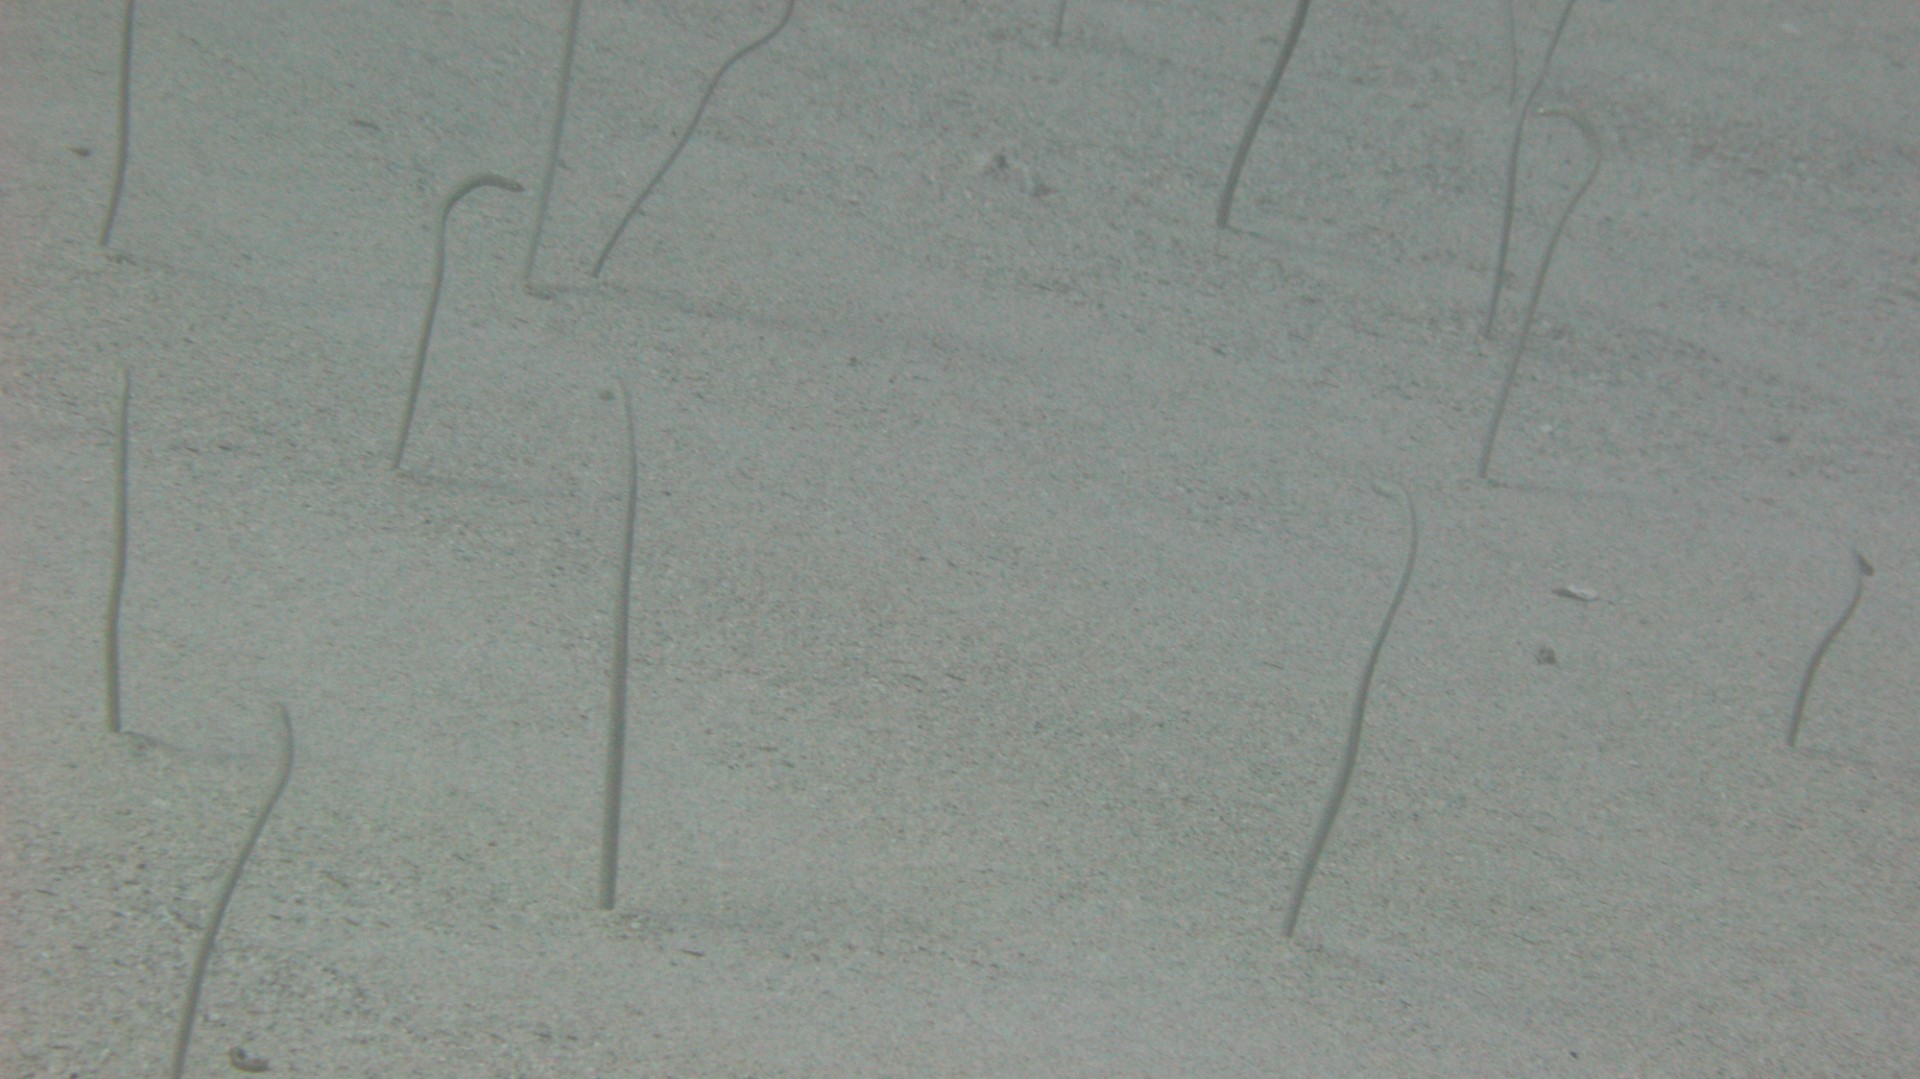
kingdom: Animalia
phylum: Chordata
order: Anguilliformes
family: Congridae
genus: Gorgasia
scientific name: Gorgasia sillneri
